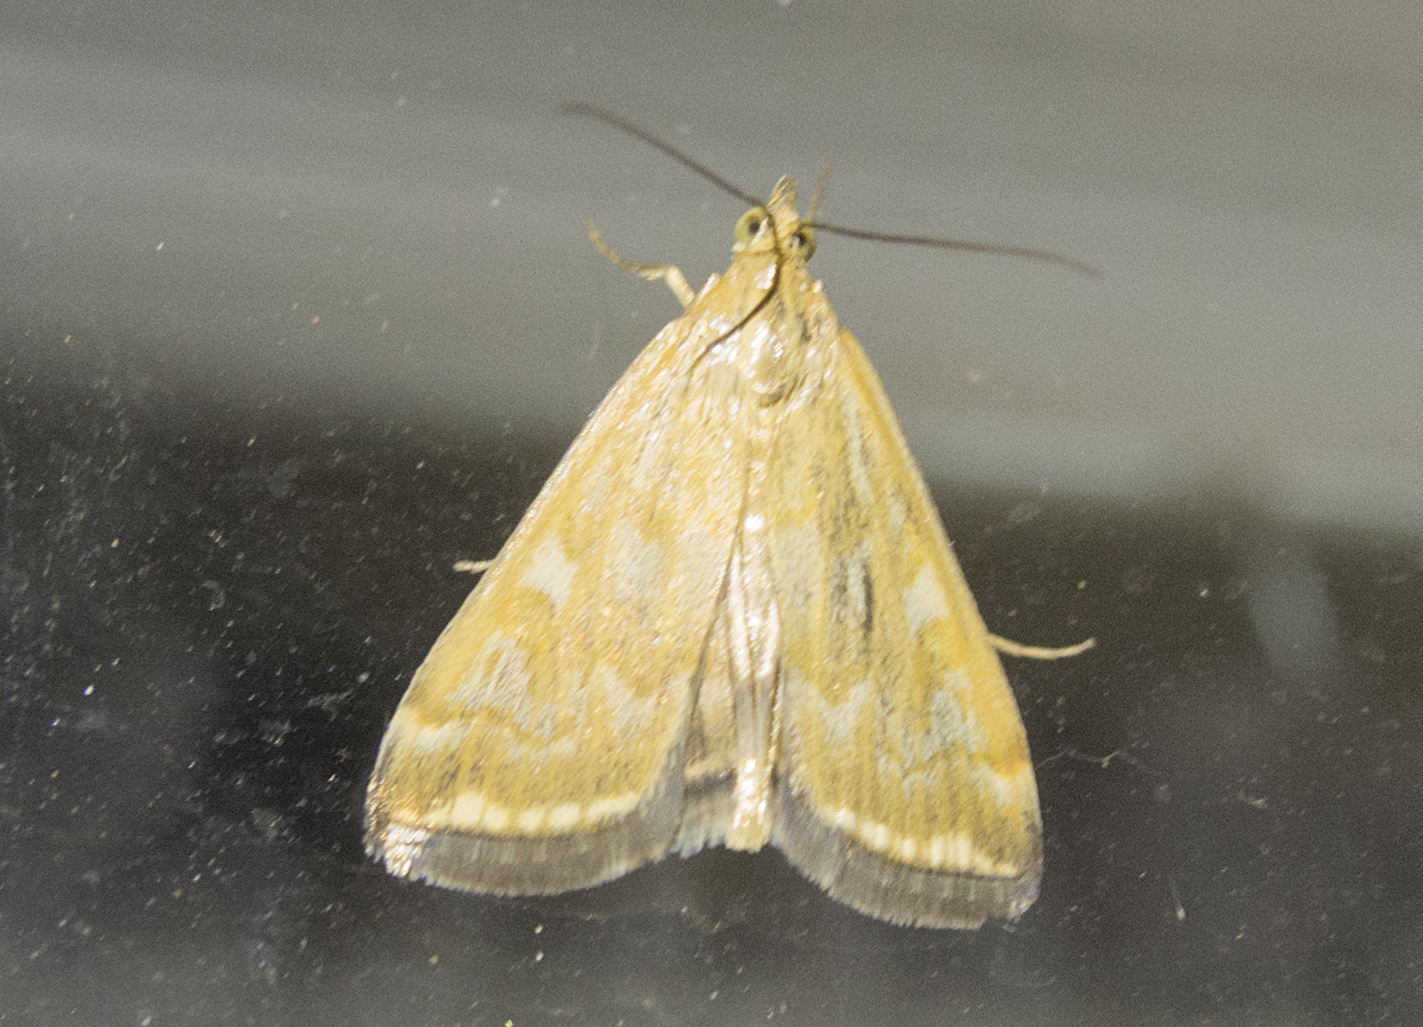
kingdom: Animalia
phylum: Arthropoda
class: Insecta
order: Lepidoptera
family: Crambidae
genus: Loxostege
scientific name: Loxostege sticticalis
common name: Crambid moth
